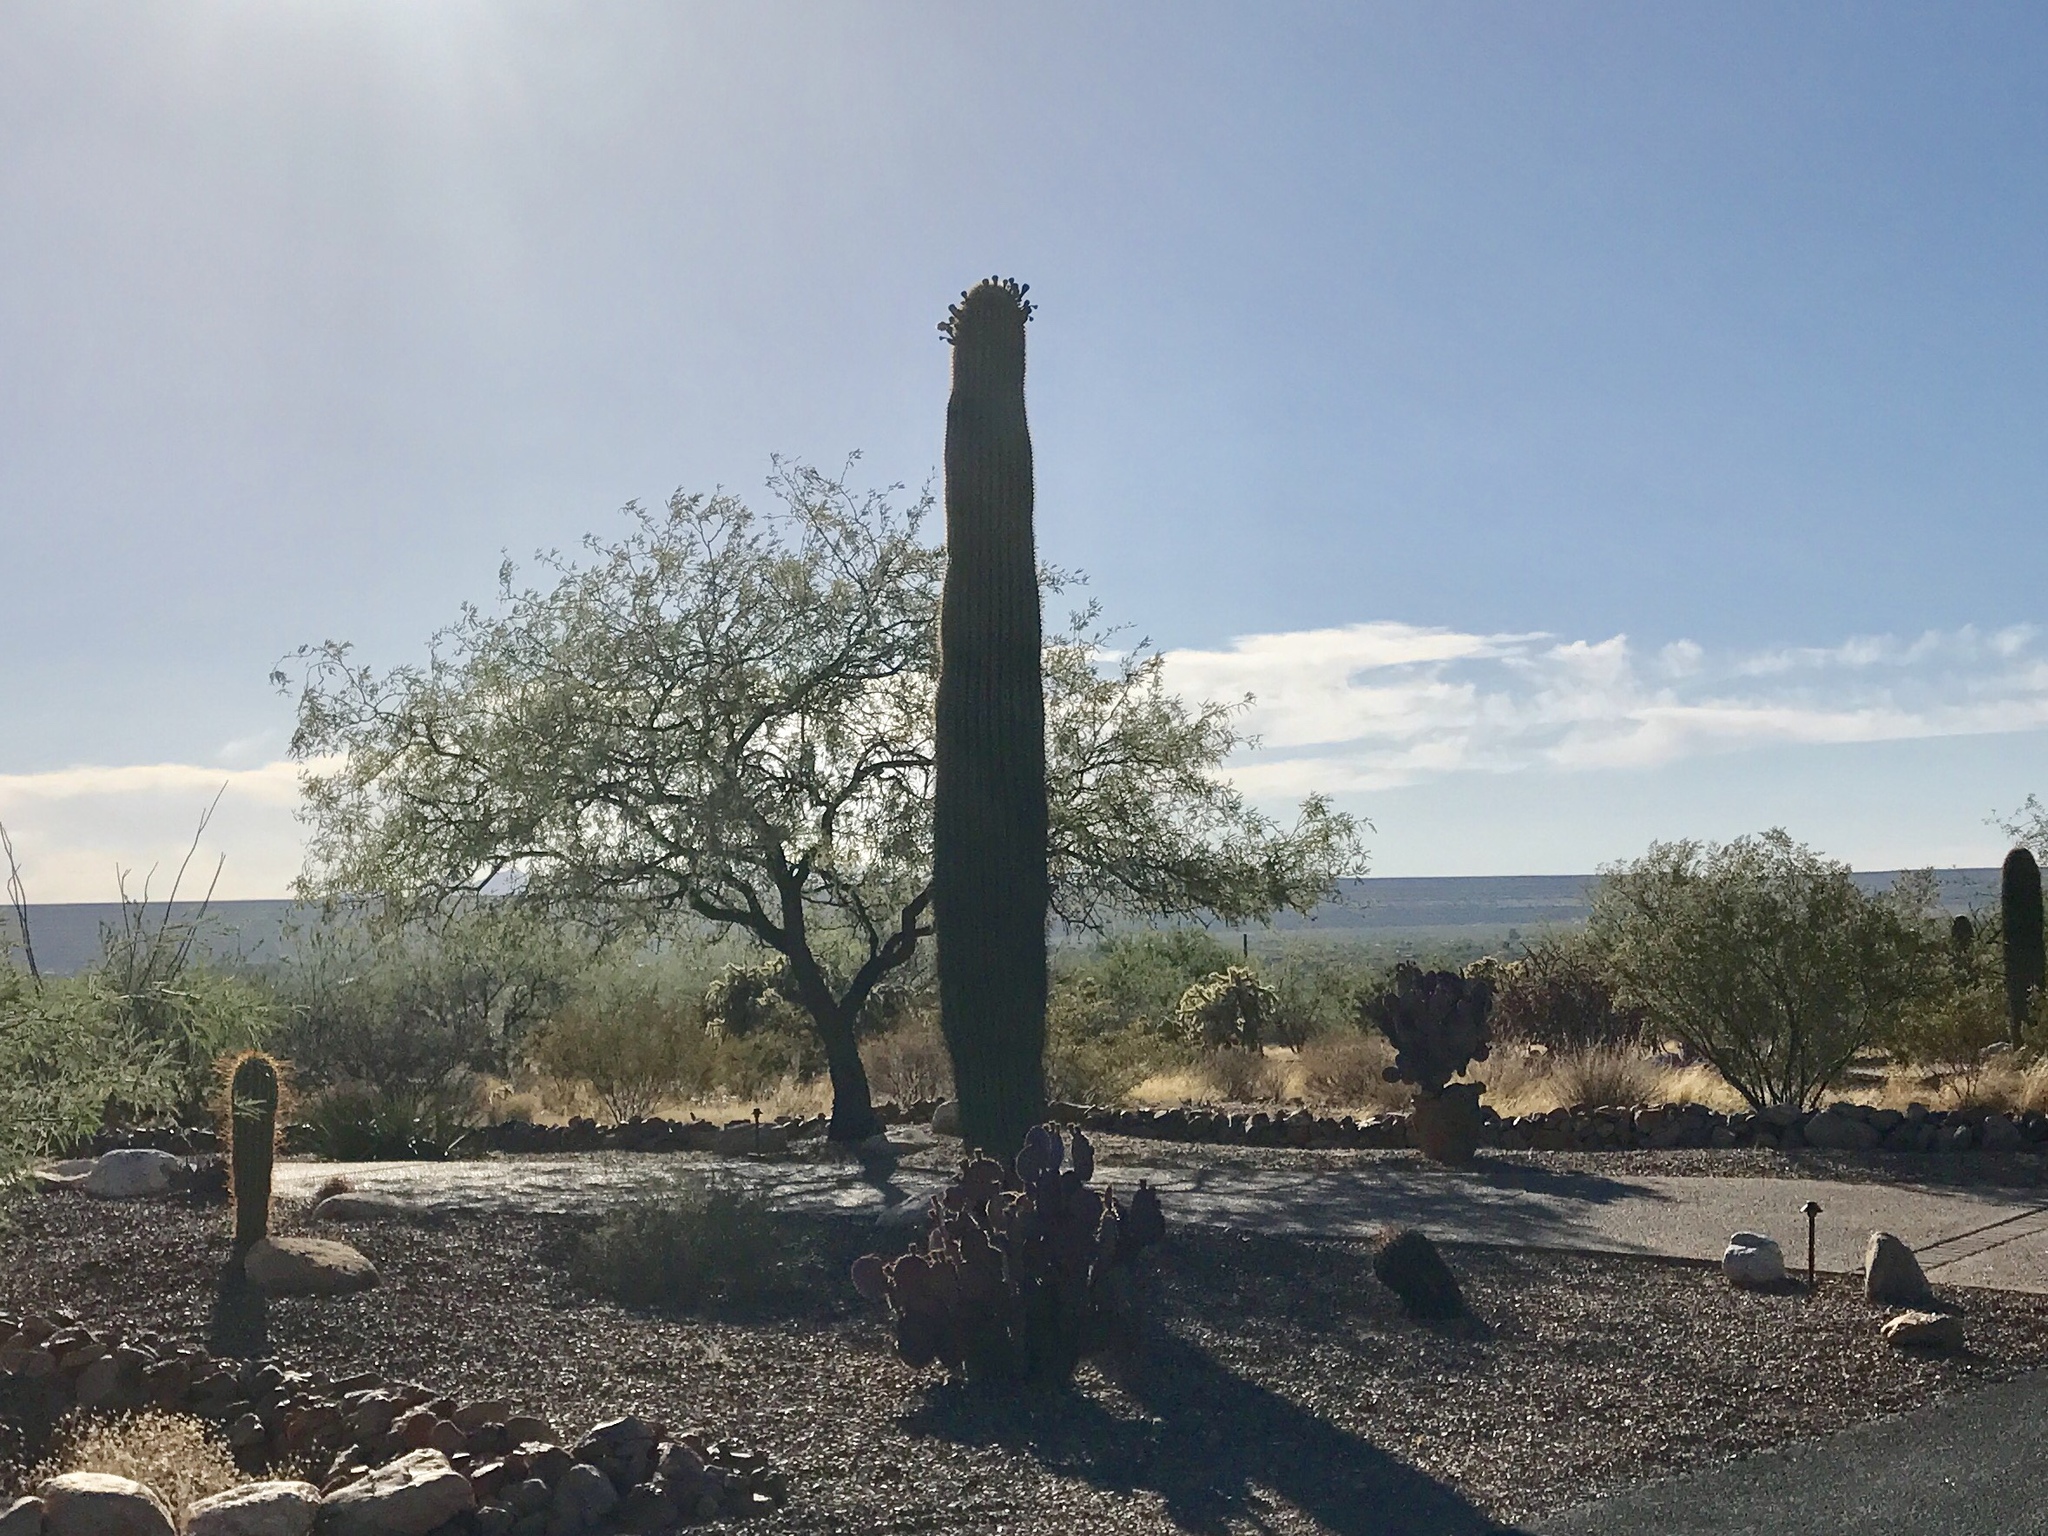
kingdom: Plantae
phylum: Tracheophyta
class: Magnoliopsida
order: Caryophyllales
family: Cactaceae
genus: Carnegiea
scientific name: Carnegiea gigantea
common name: Saguaro
